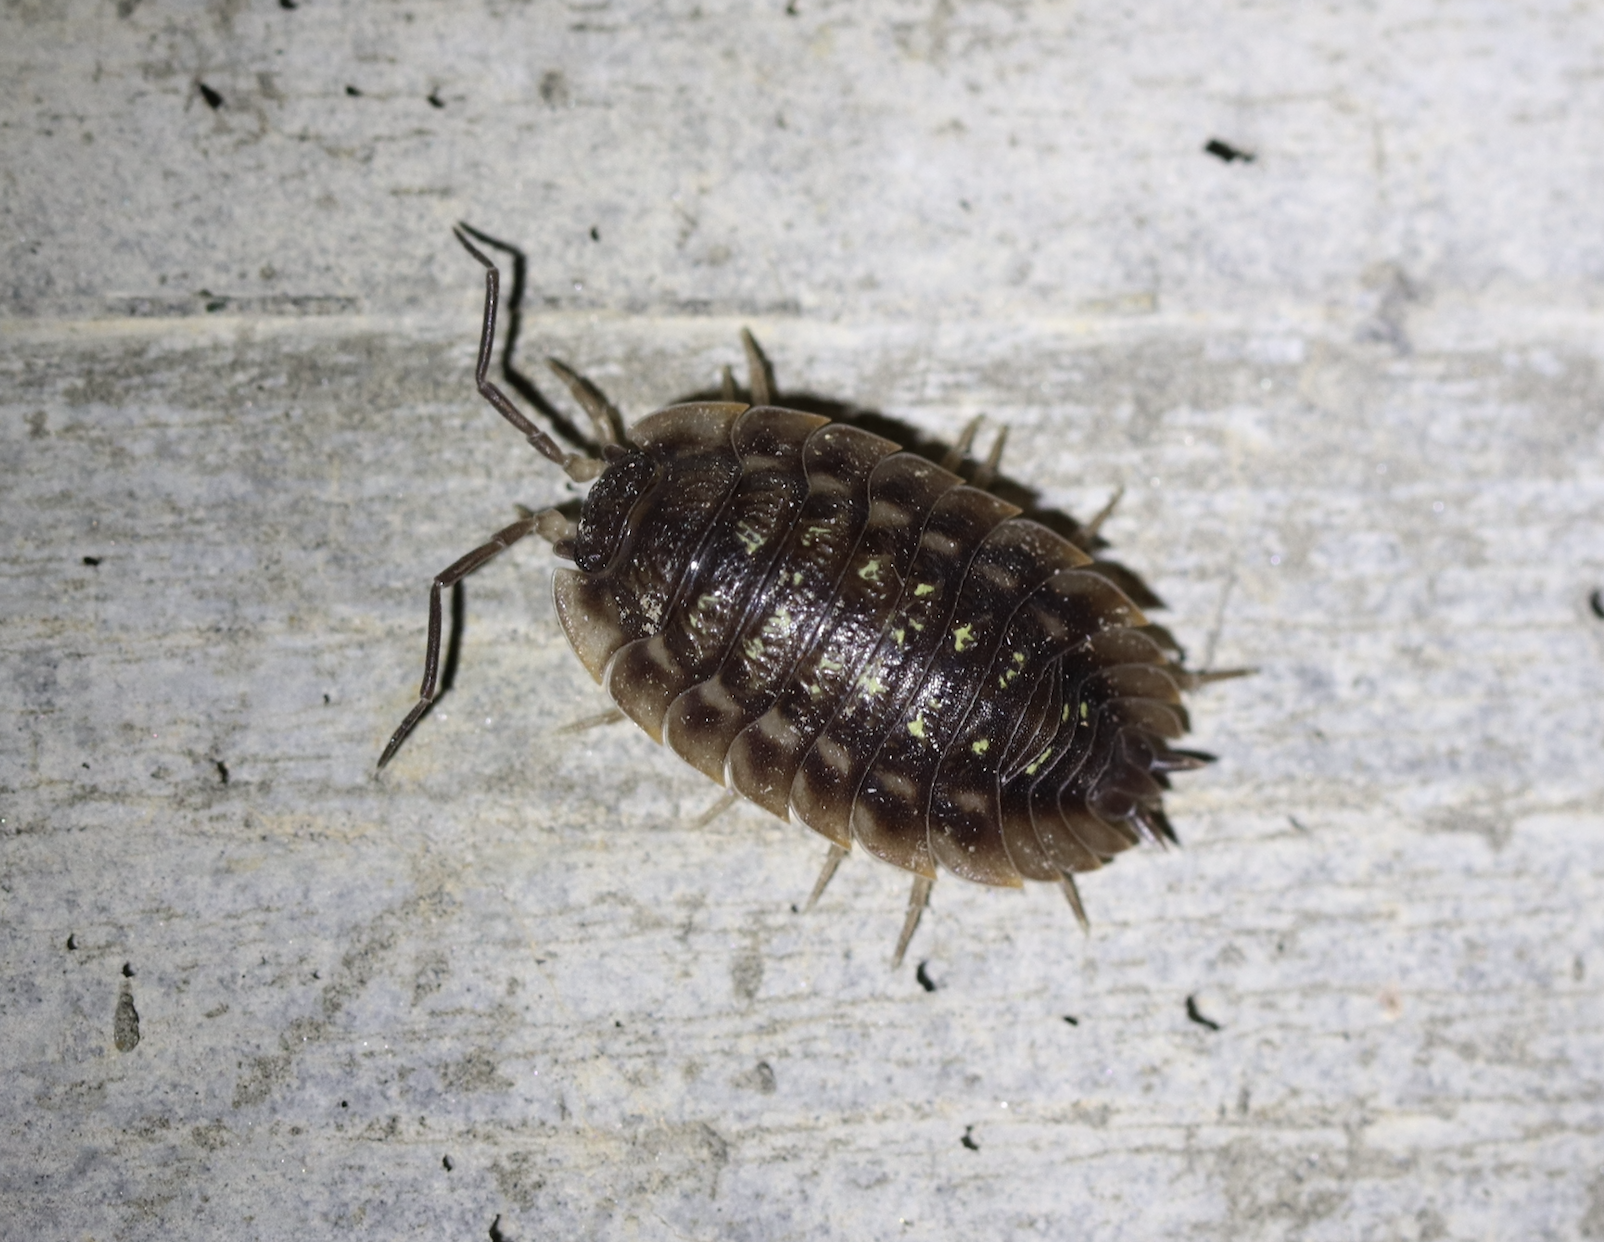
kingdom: Animalia
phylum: Arthropoda
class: Malacostraca
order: Isopoda
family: Oniscidae
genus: Oniscus
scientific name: Oniscus asellus
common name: Common shiny woodlouse
